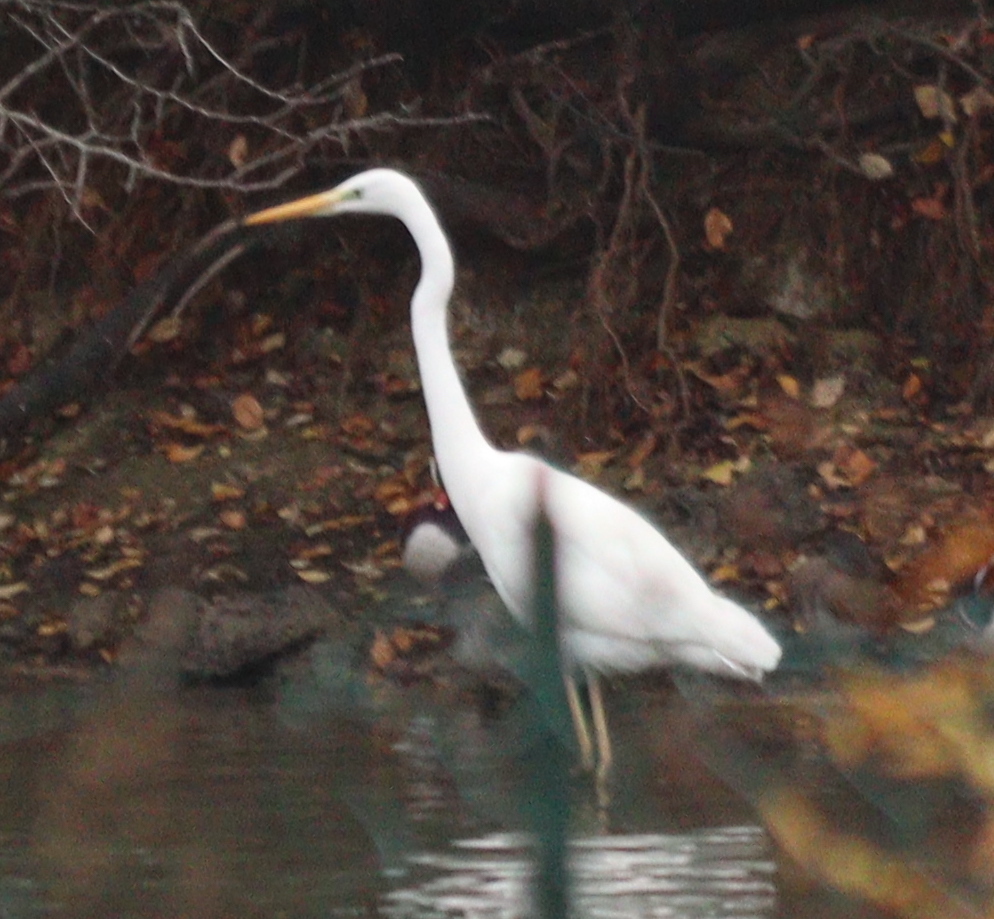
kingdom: Animalia
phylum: Chordata
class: Aves
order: Pelecaniformes
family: Ardeidae
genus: Ardea
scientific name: Ardea alba
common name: Great egret
